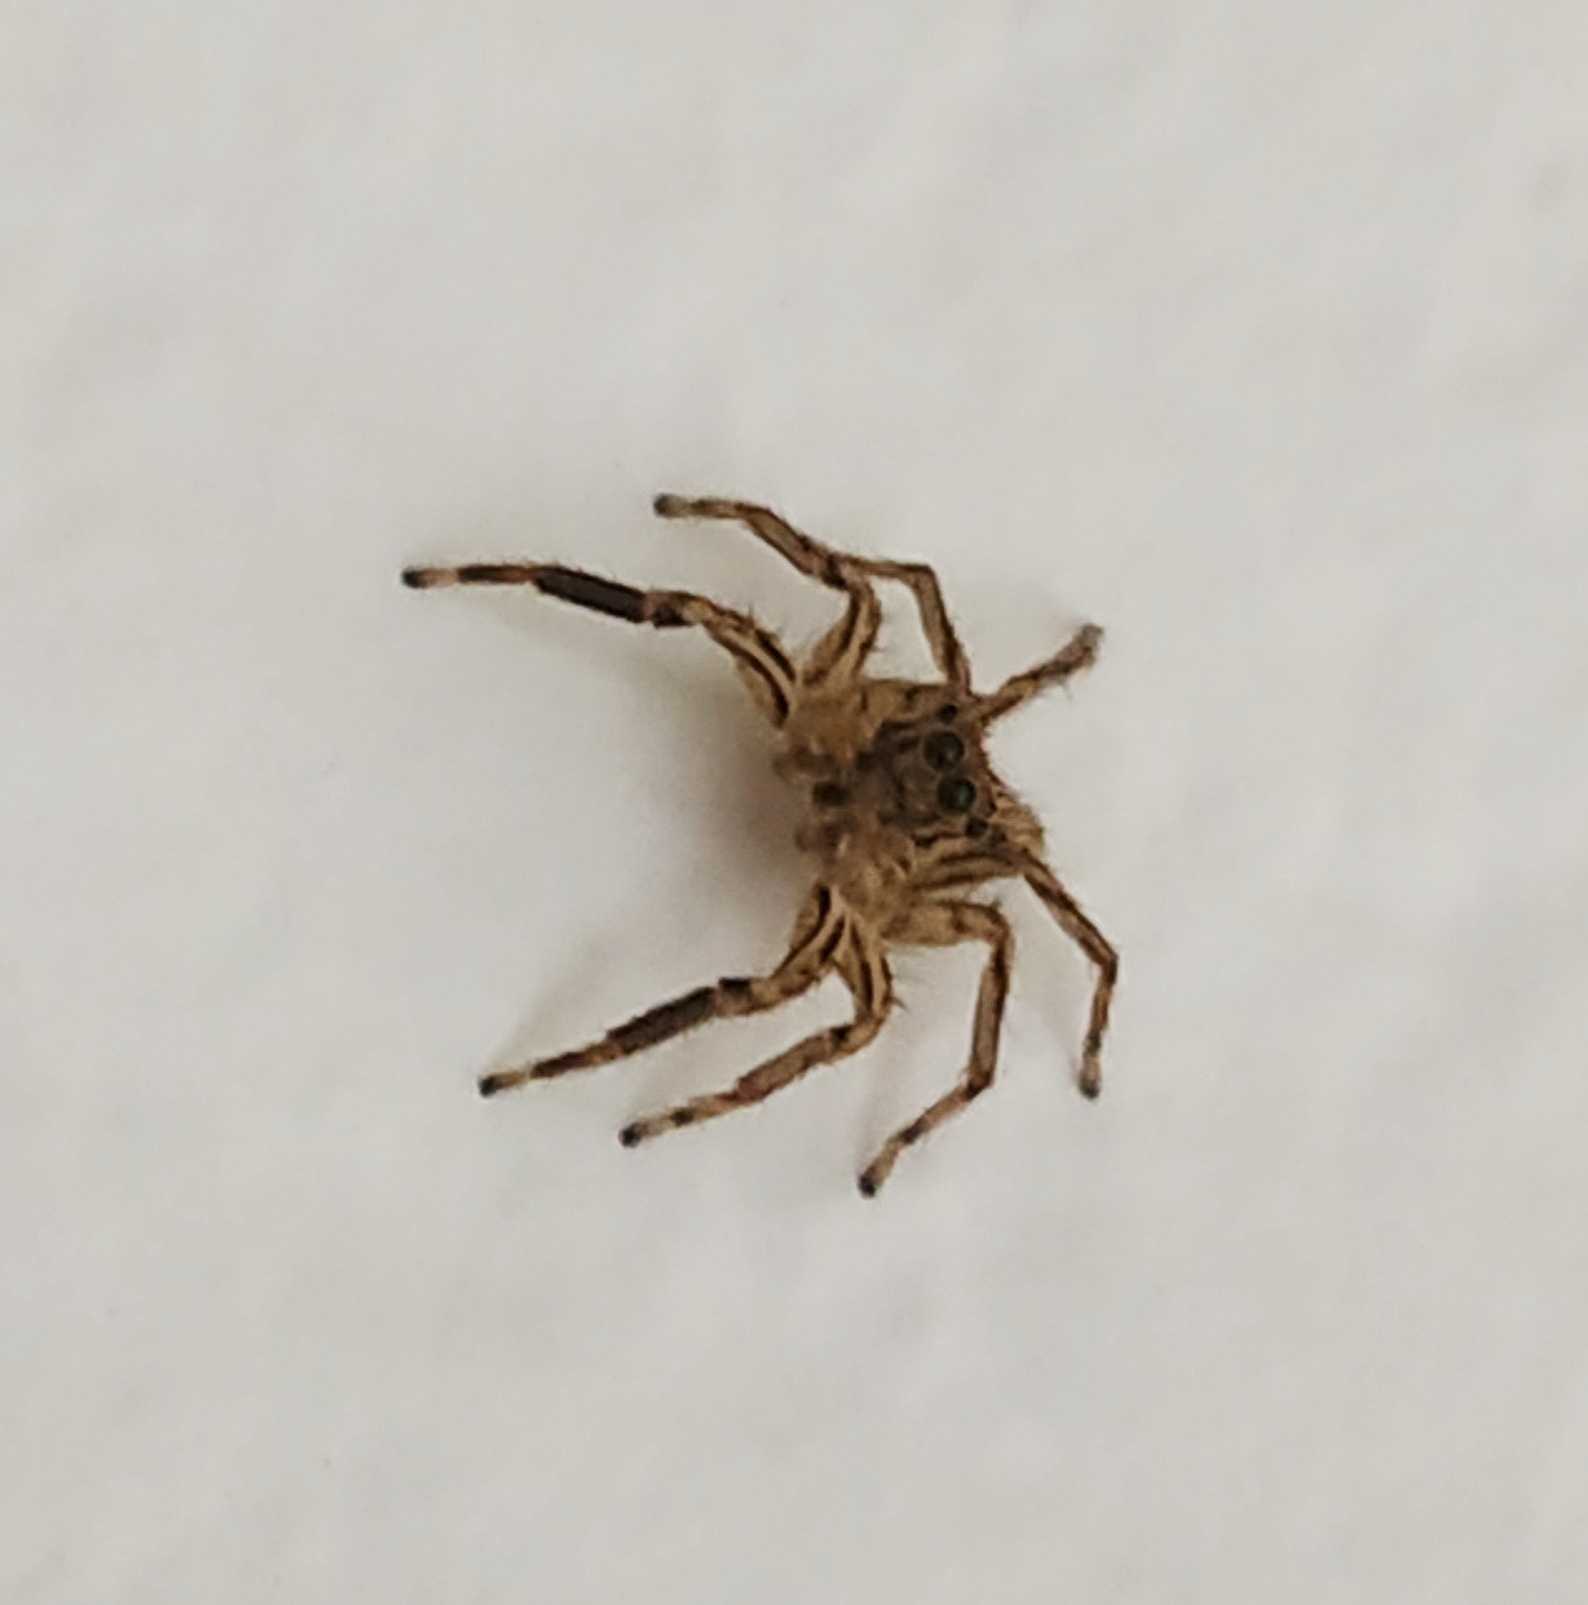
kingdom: Animalia
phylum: Arthropoda
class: Arachnida
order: Araneae
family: Salticidae
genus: Plexippus
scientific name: Plexippus petersi
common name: Jumping spider
